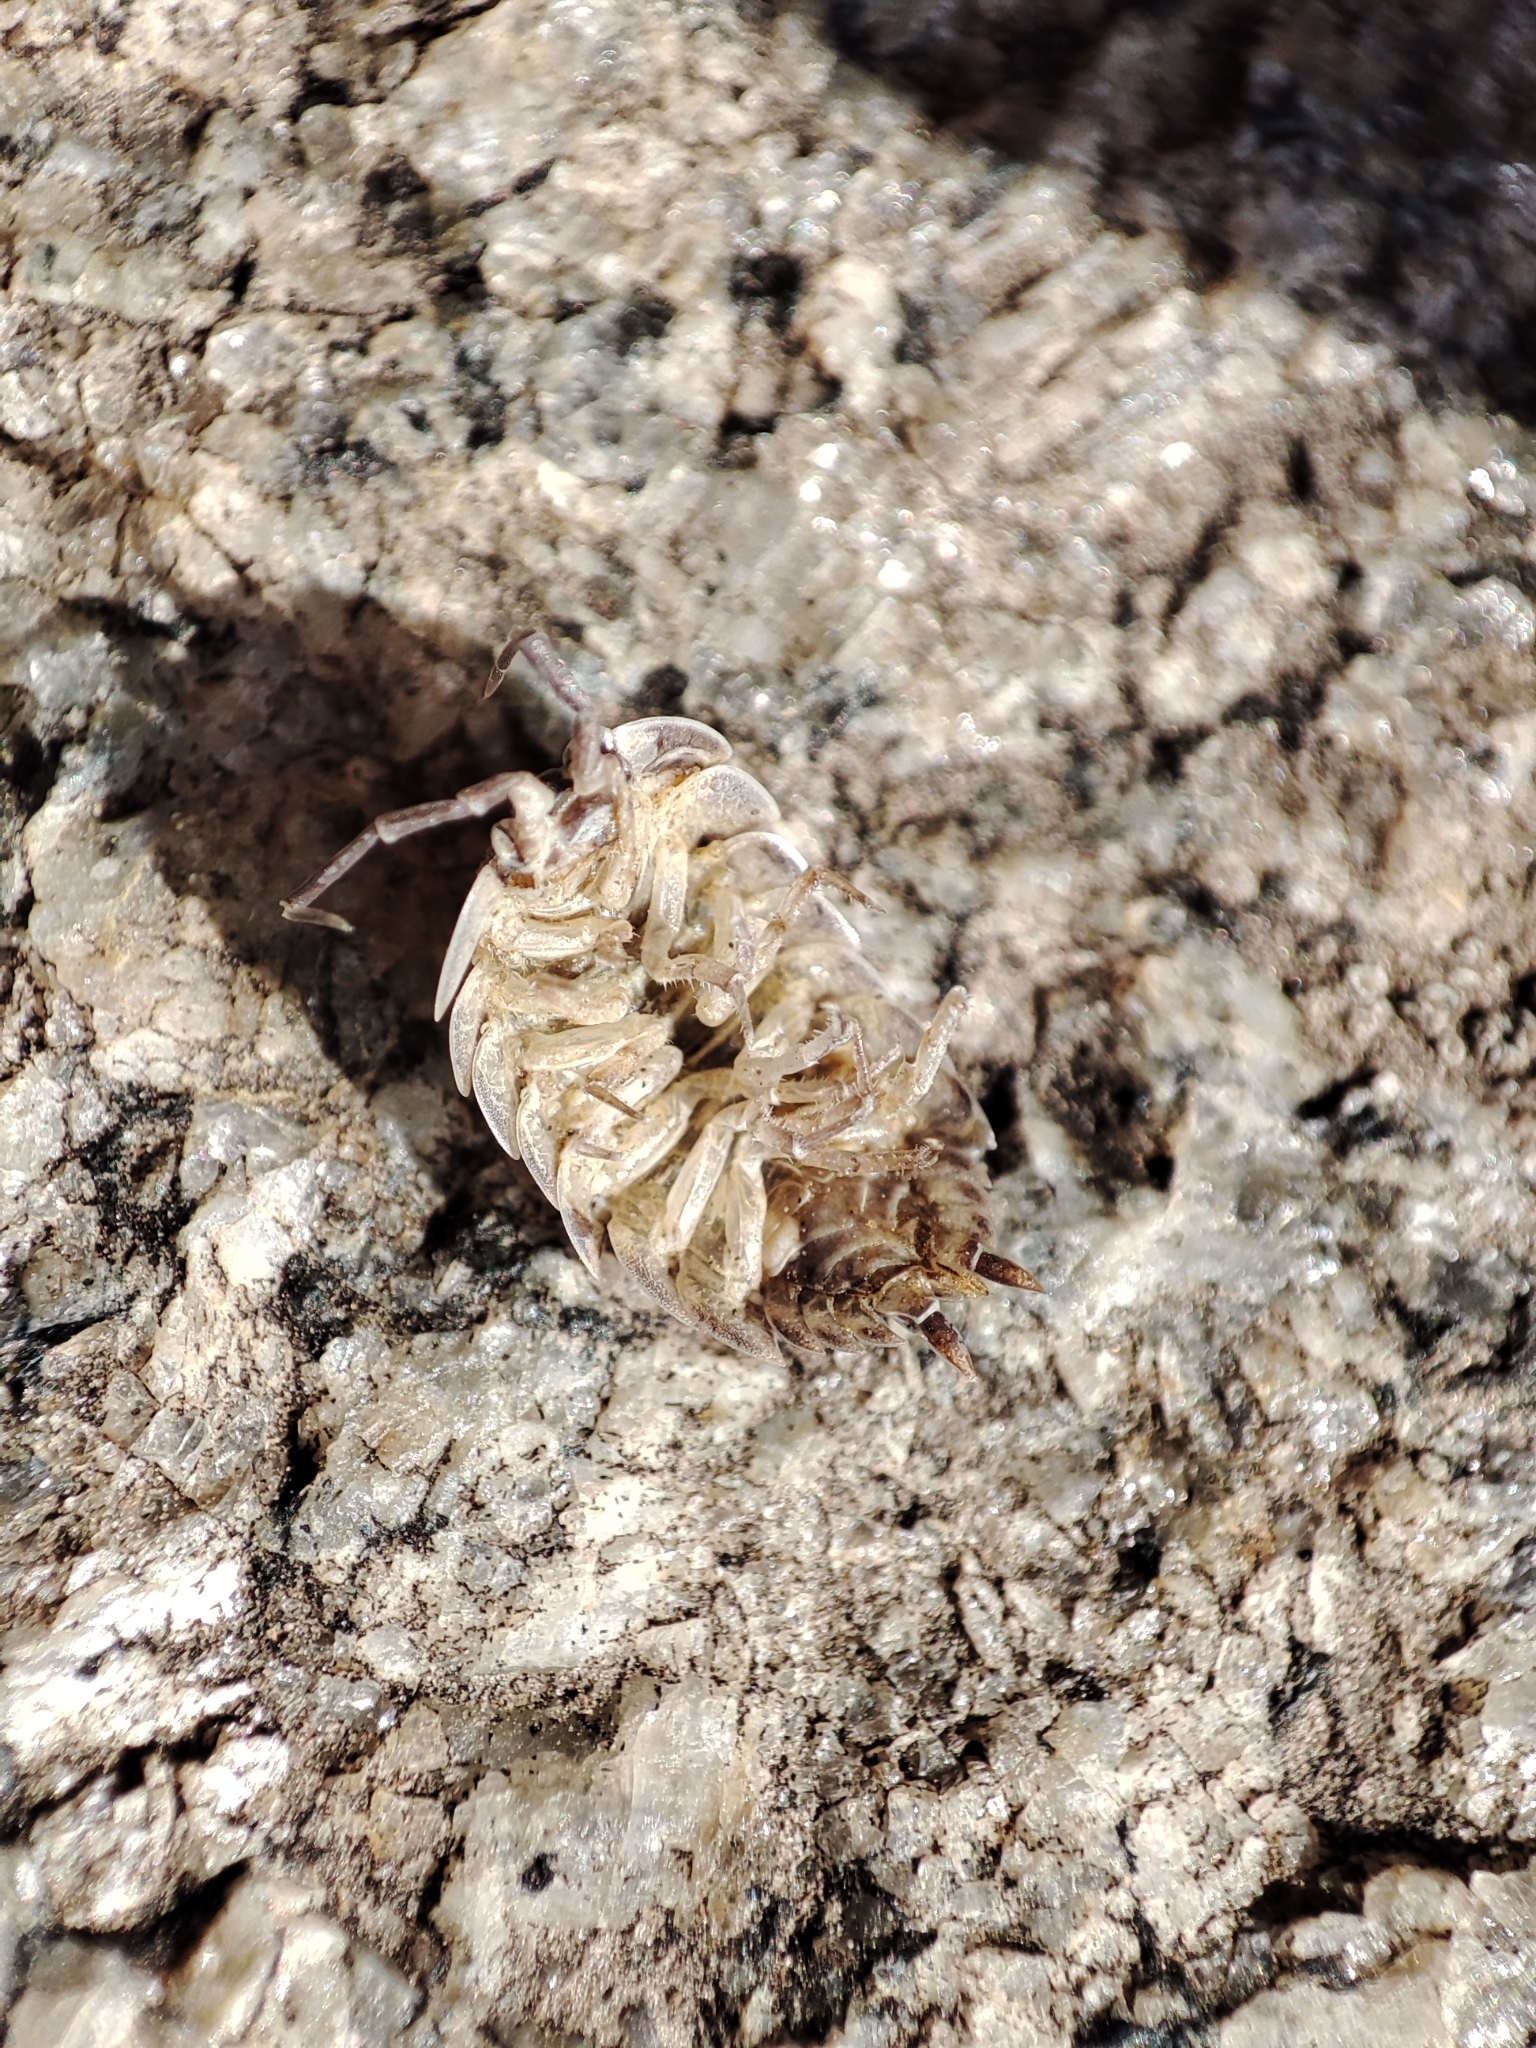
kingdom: Animalia
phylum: Arthropoda
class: Malacostraca
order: Isopoda
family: Porcellionidae
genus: Porcellio
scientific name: Porcellio spinicornis
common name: Painted woodlouse
